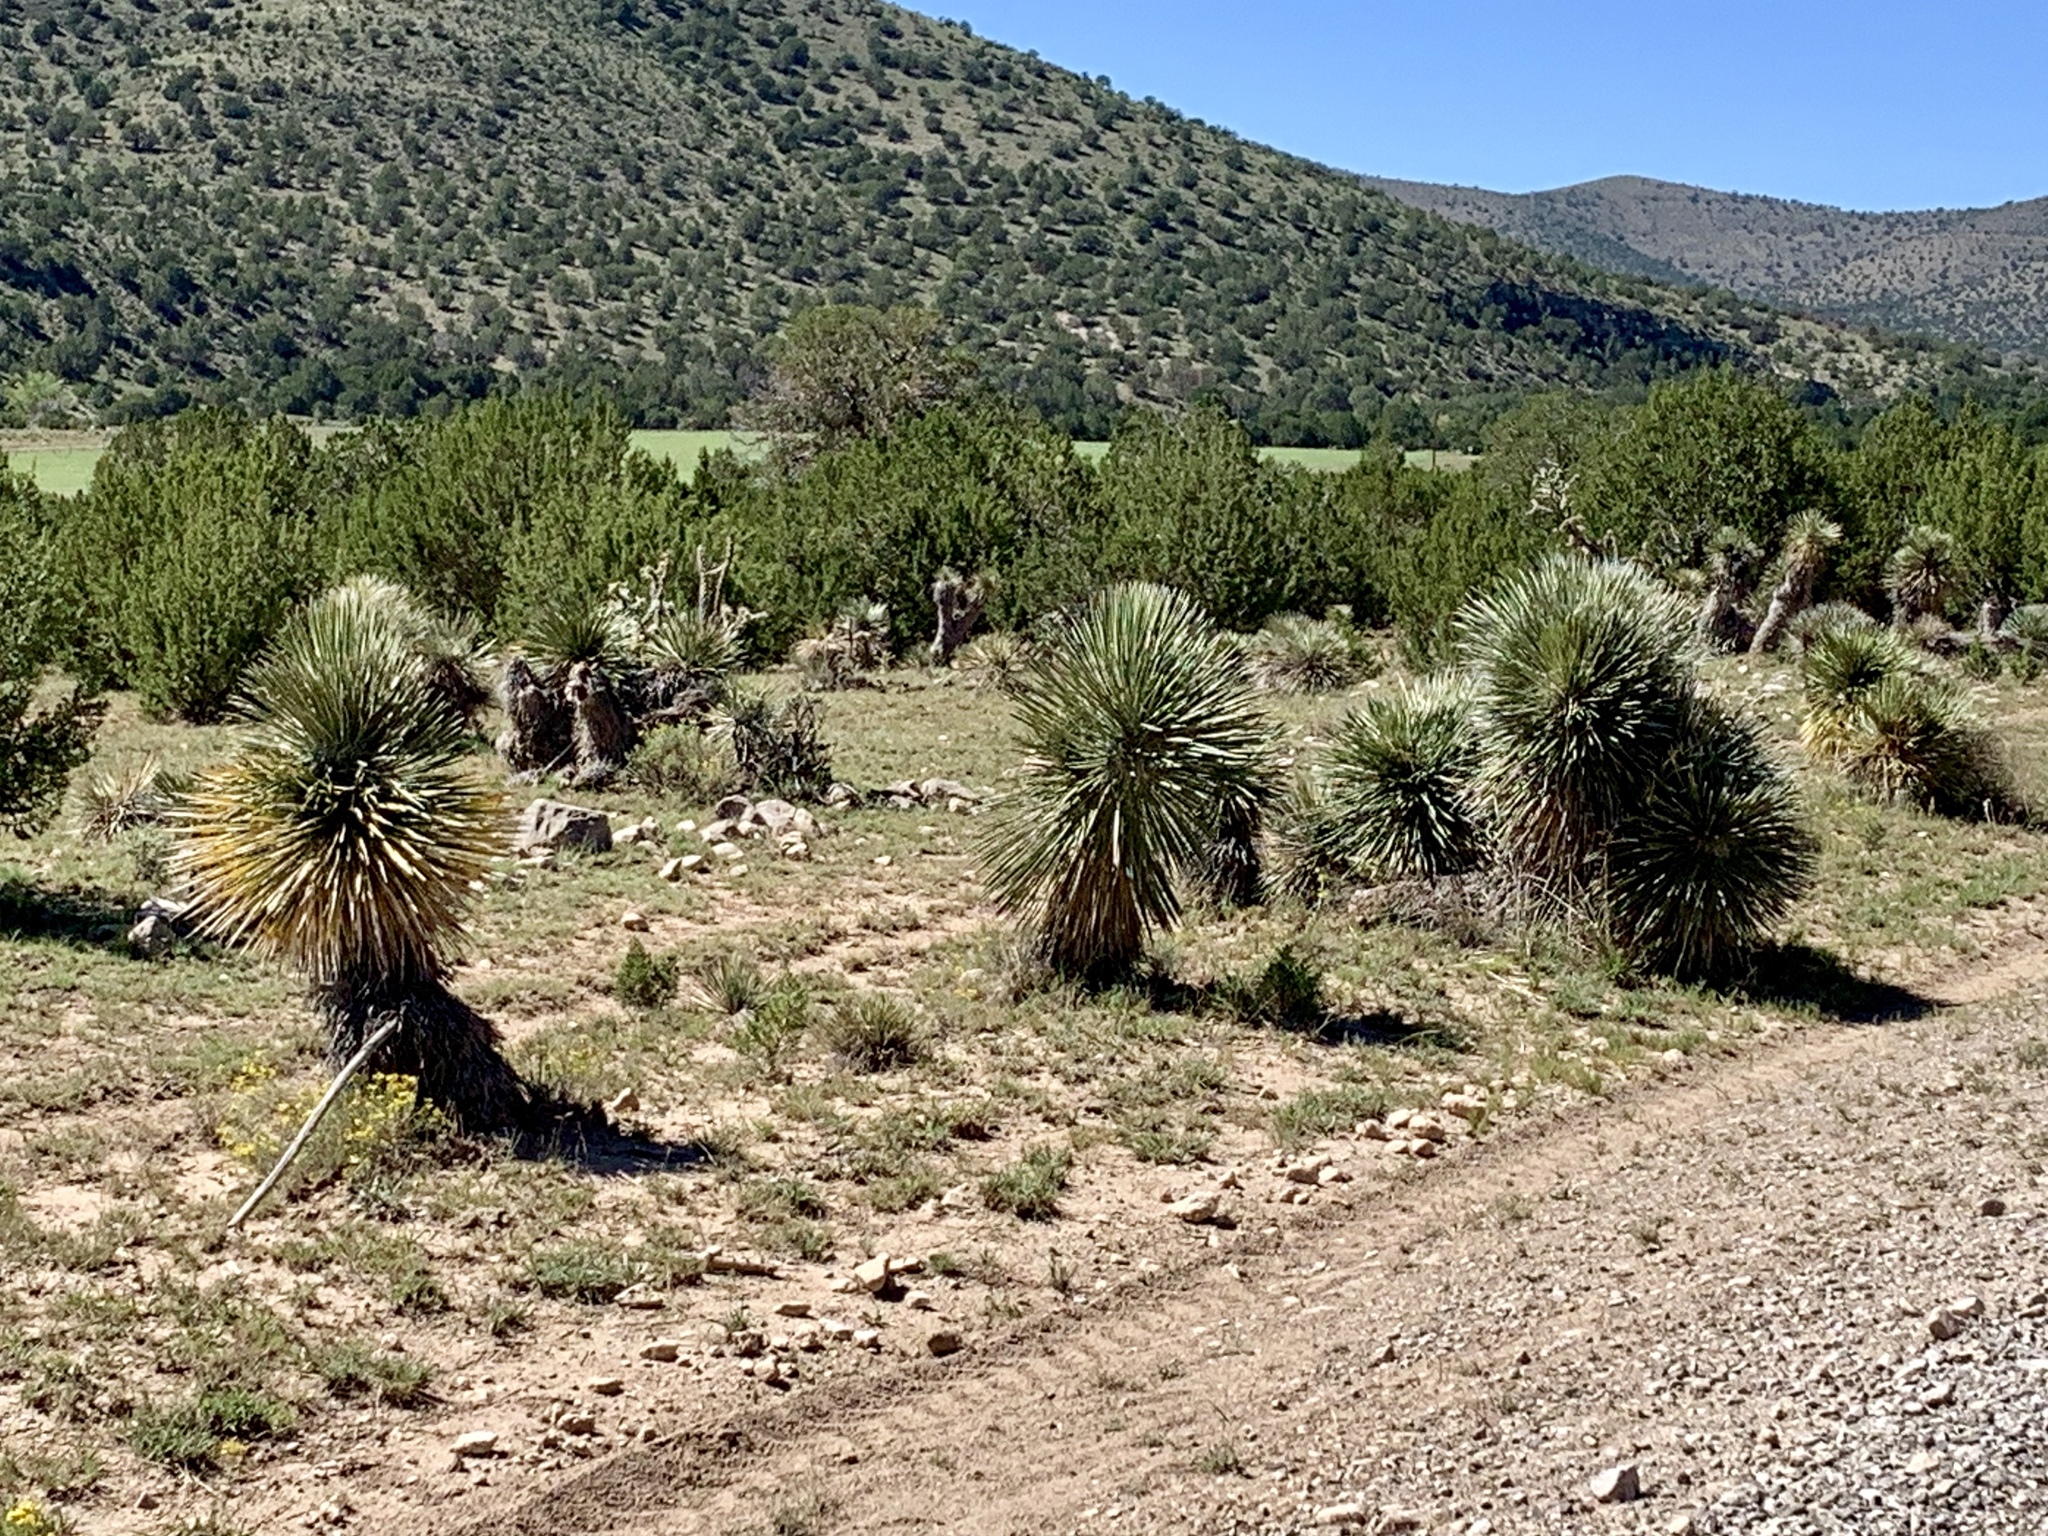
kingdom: Plantae
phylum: Tracheophyta
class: Liliopsida
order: Asparagales
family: Asparagaceae
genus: Yucca
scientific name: Yucca elata
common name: Palmella
